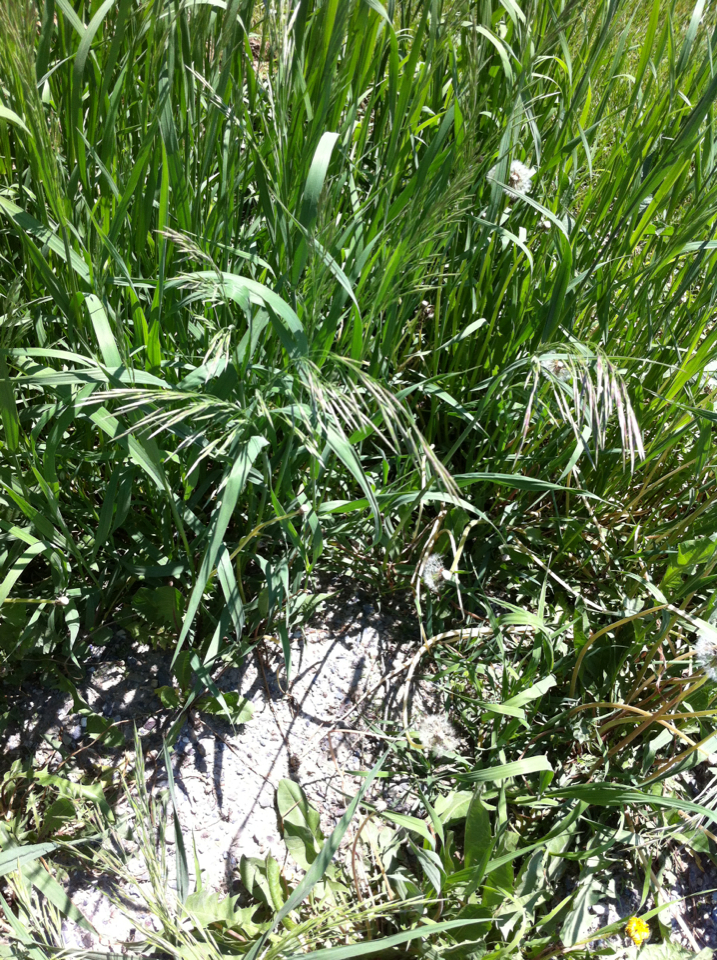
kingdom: Plantae
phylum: Tracheophyta
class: Liliopsida
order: Poales
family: Poaceae
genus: Bromus
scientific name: Bromus
